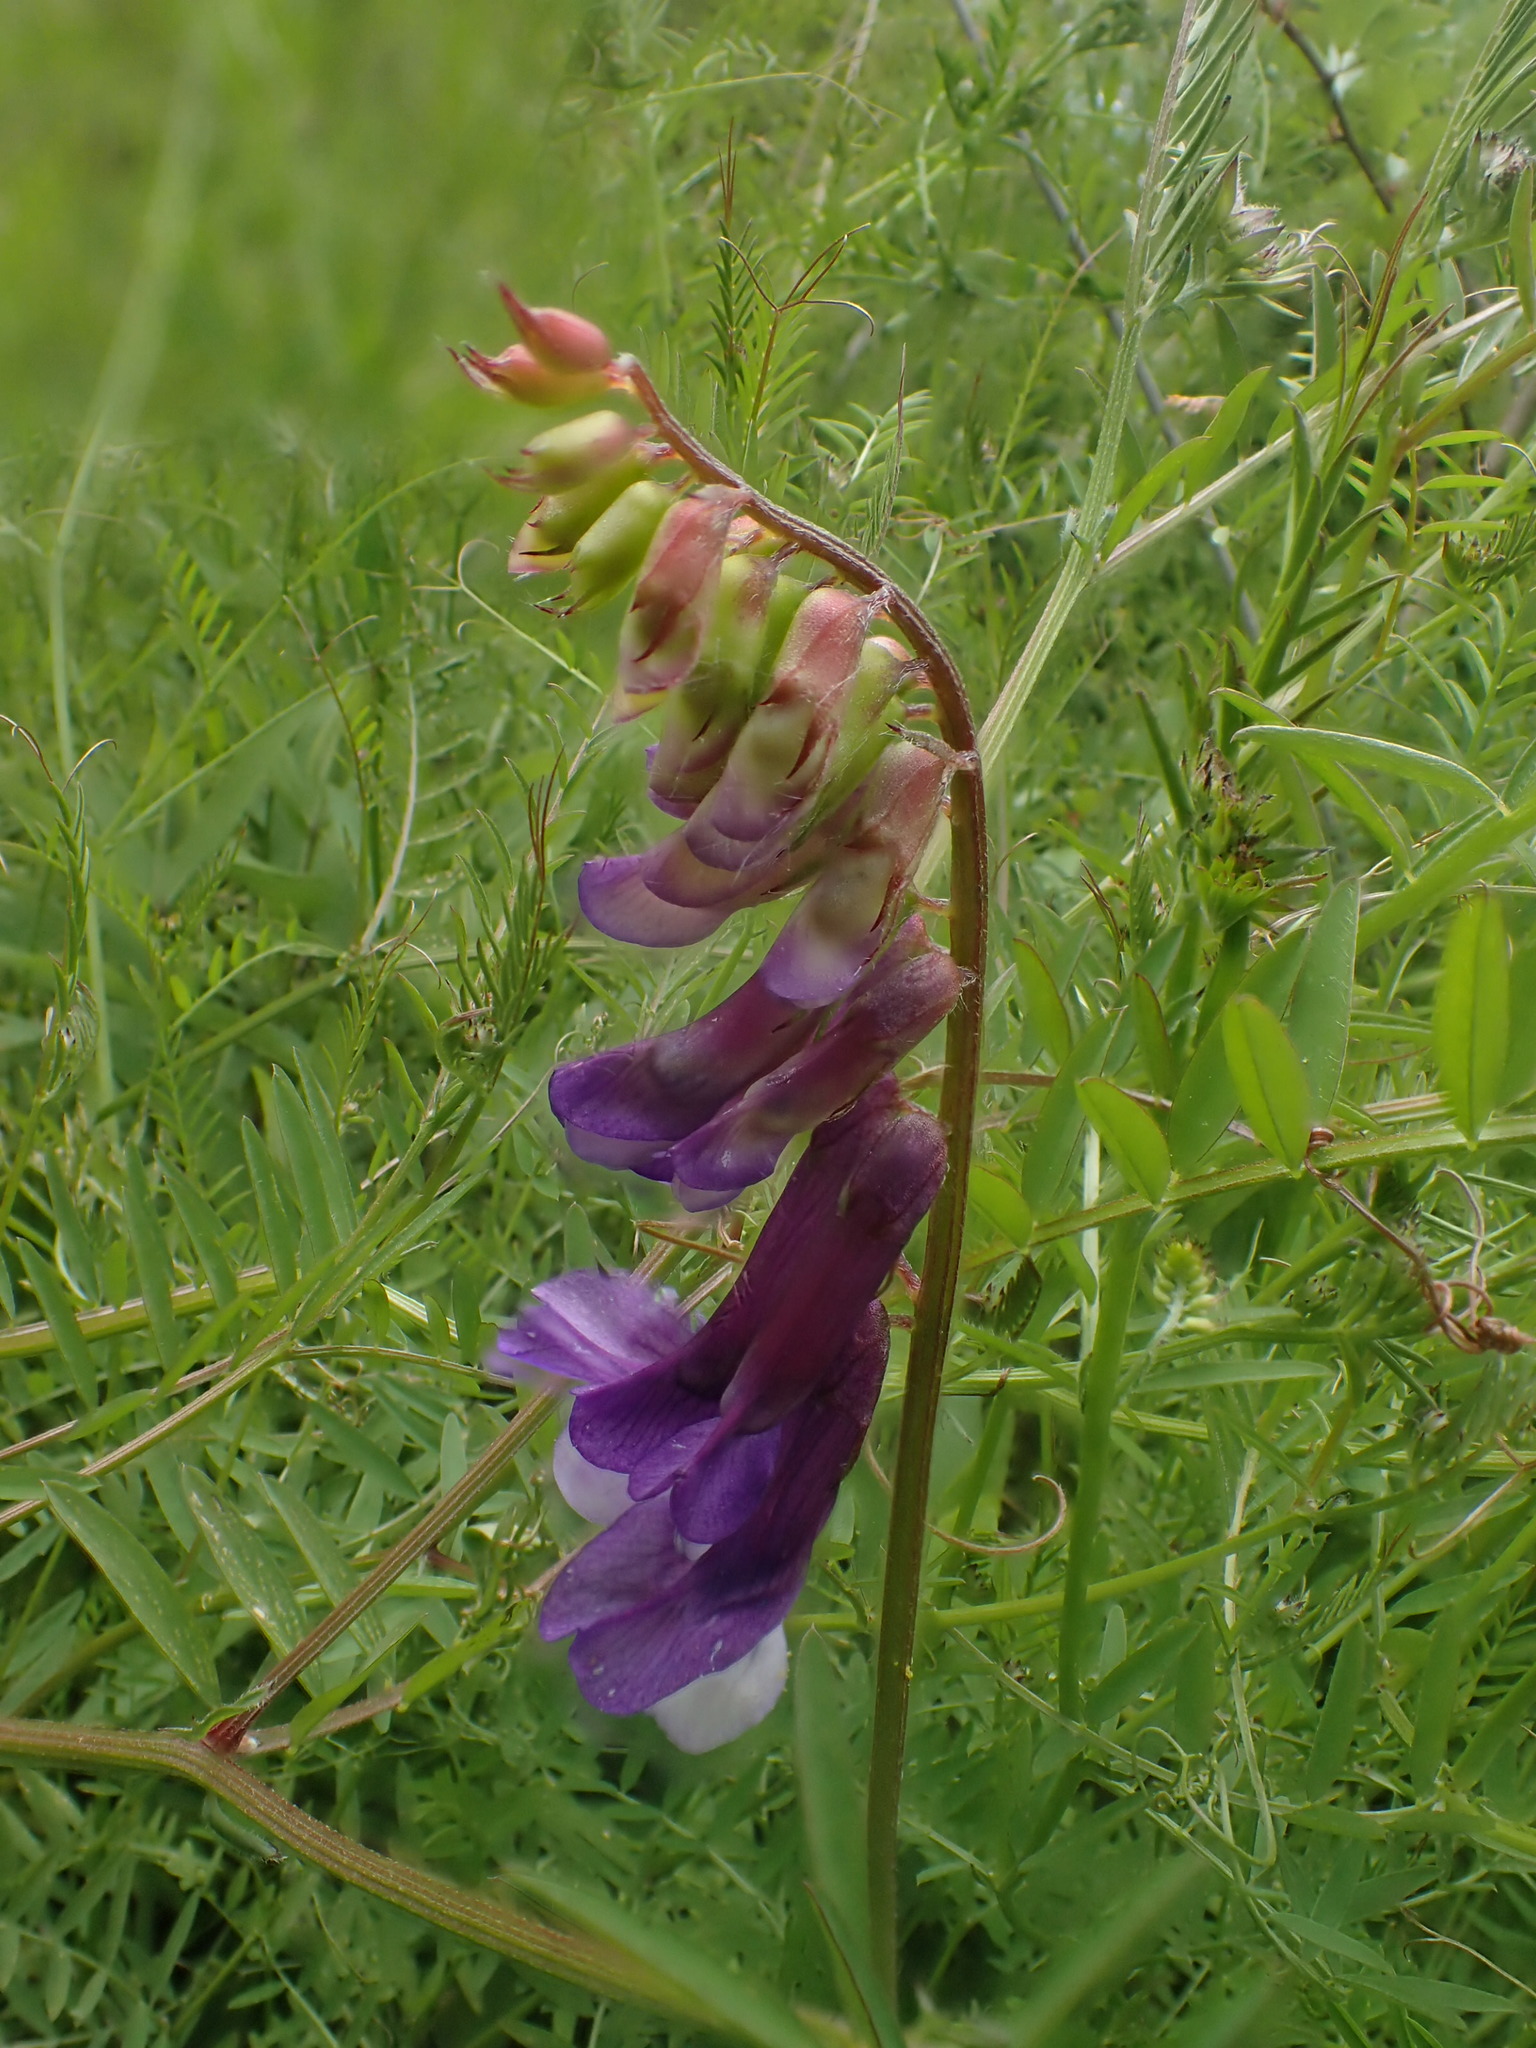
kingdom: Plantae
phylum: Tracheophyta
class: Magnoliopsida
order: Fabales
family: Fabaceae
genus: Vicia
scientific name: Vicia villosa
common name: Fodder vetch
